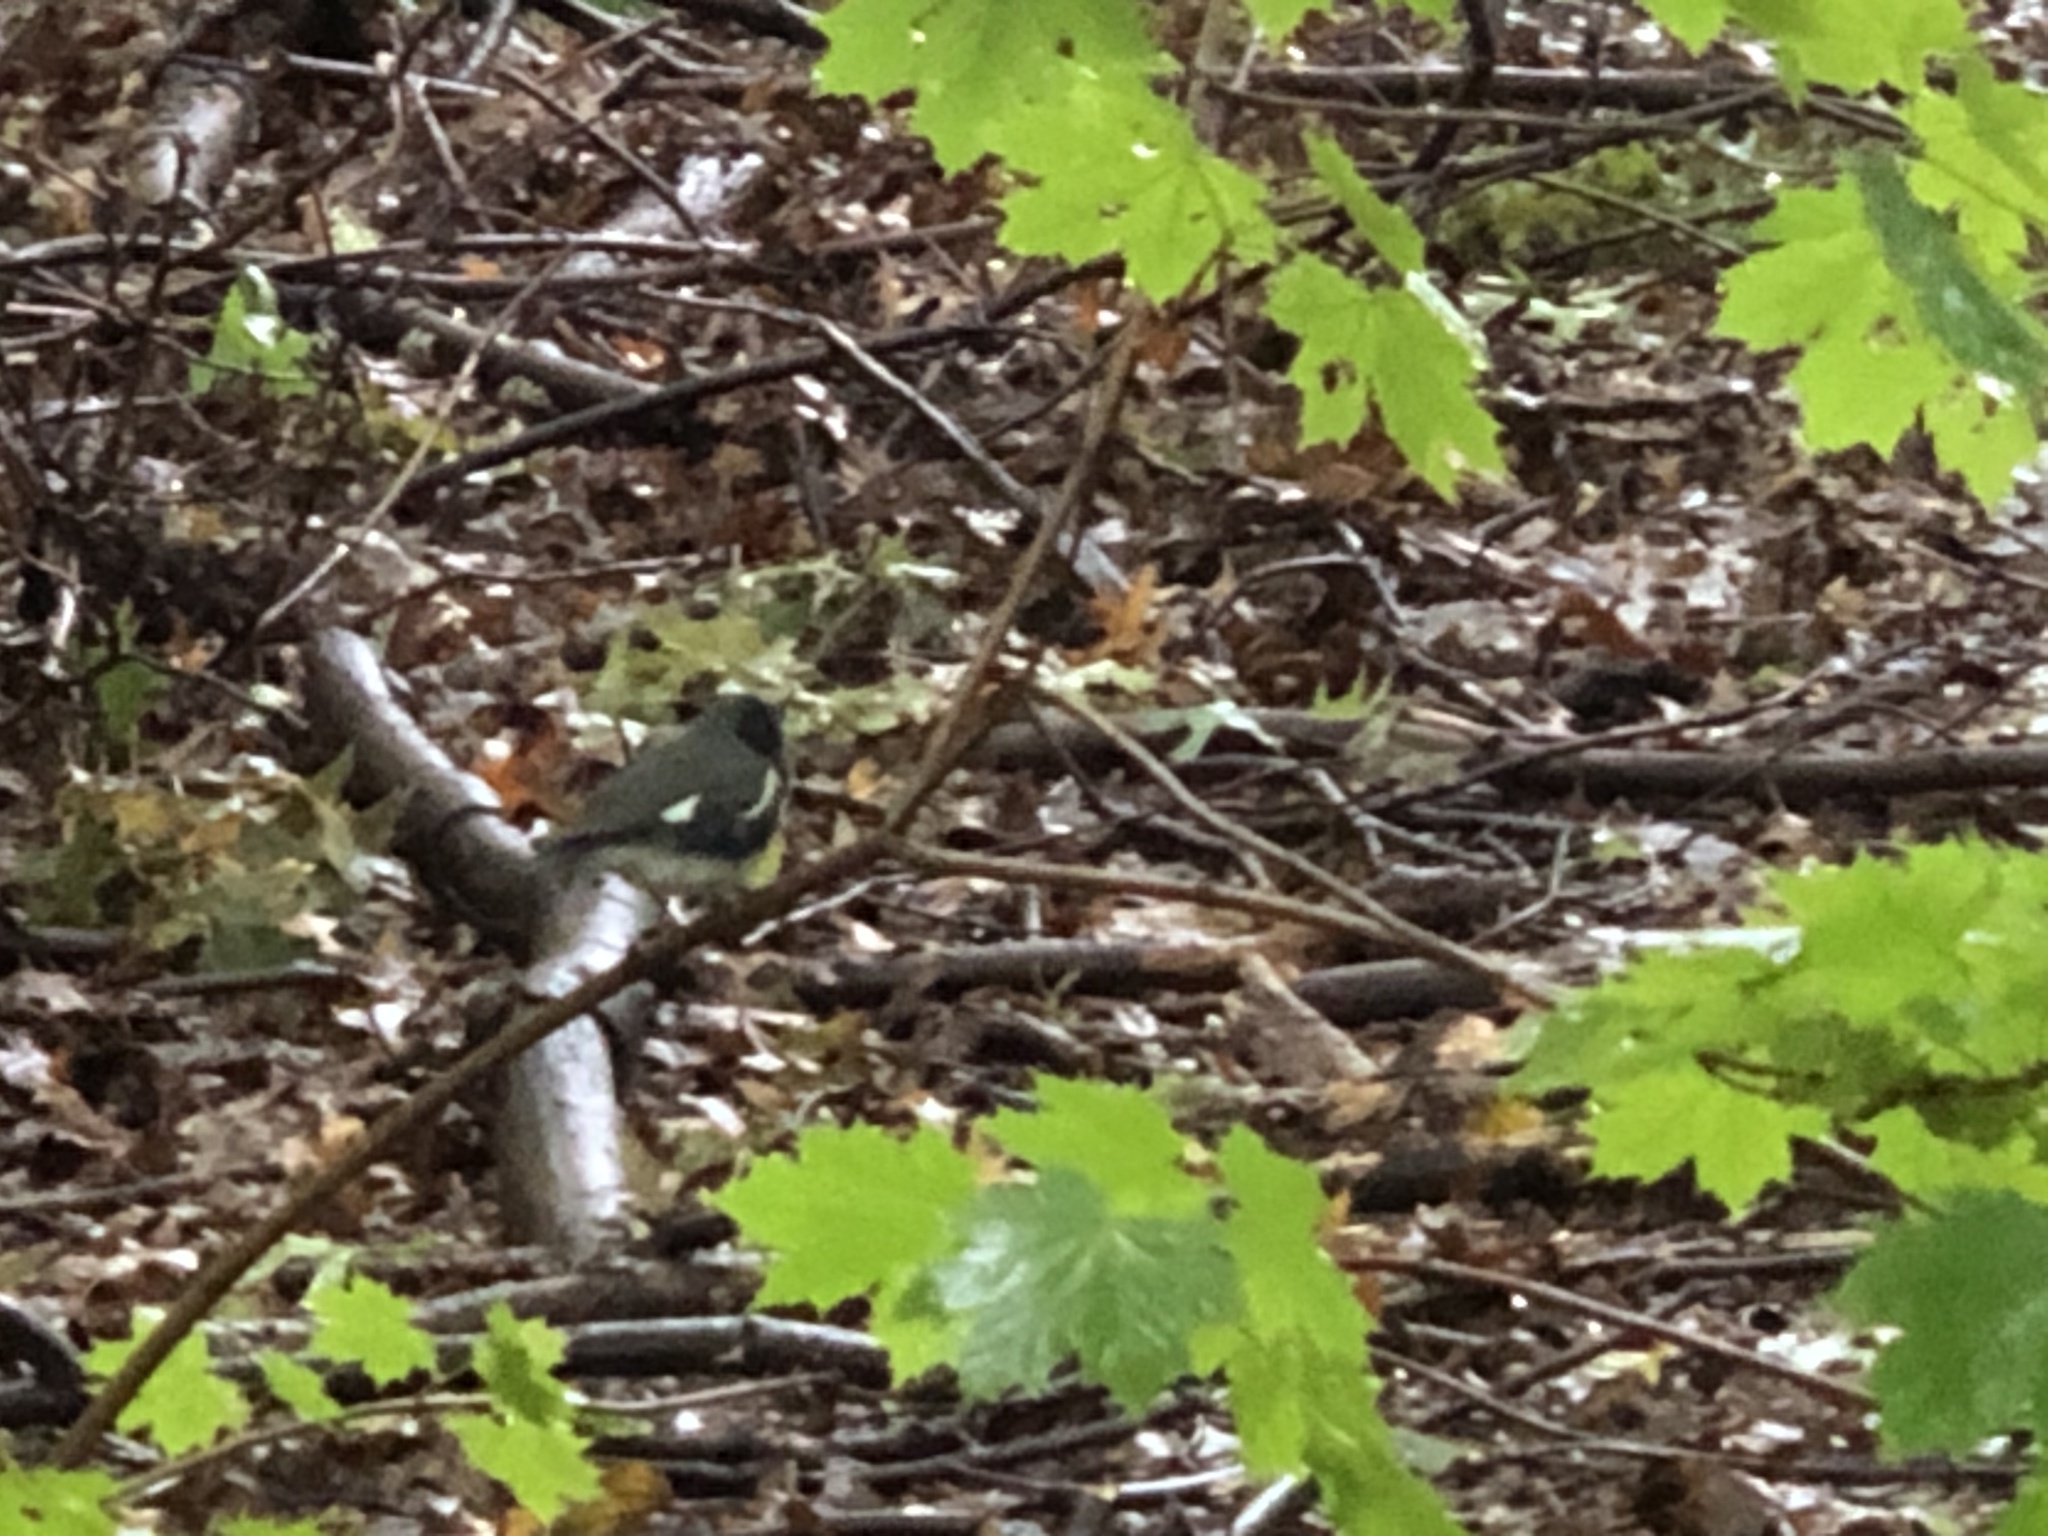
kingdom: Animalia
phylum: Chordata
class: Aves
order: Passeriformes
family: Parulidae
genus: Setophaga
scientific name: Setophaga caerulescens
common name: Black-throated blue warbler
